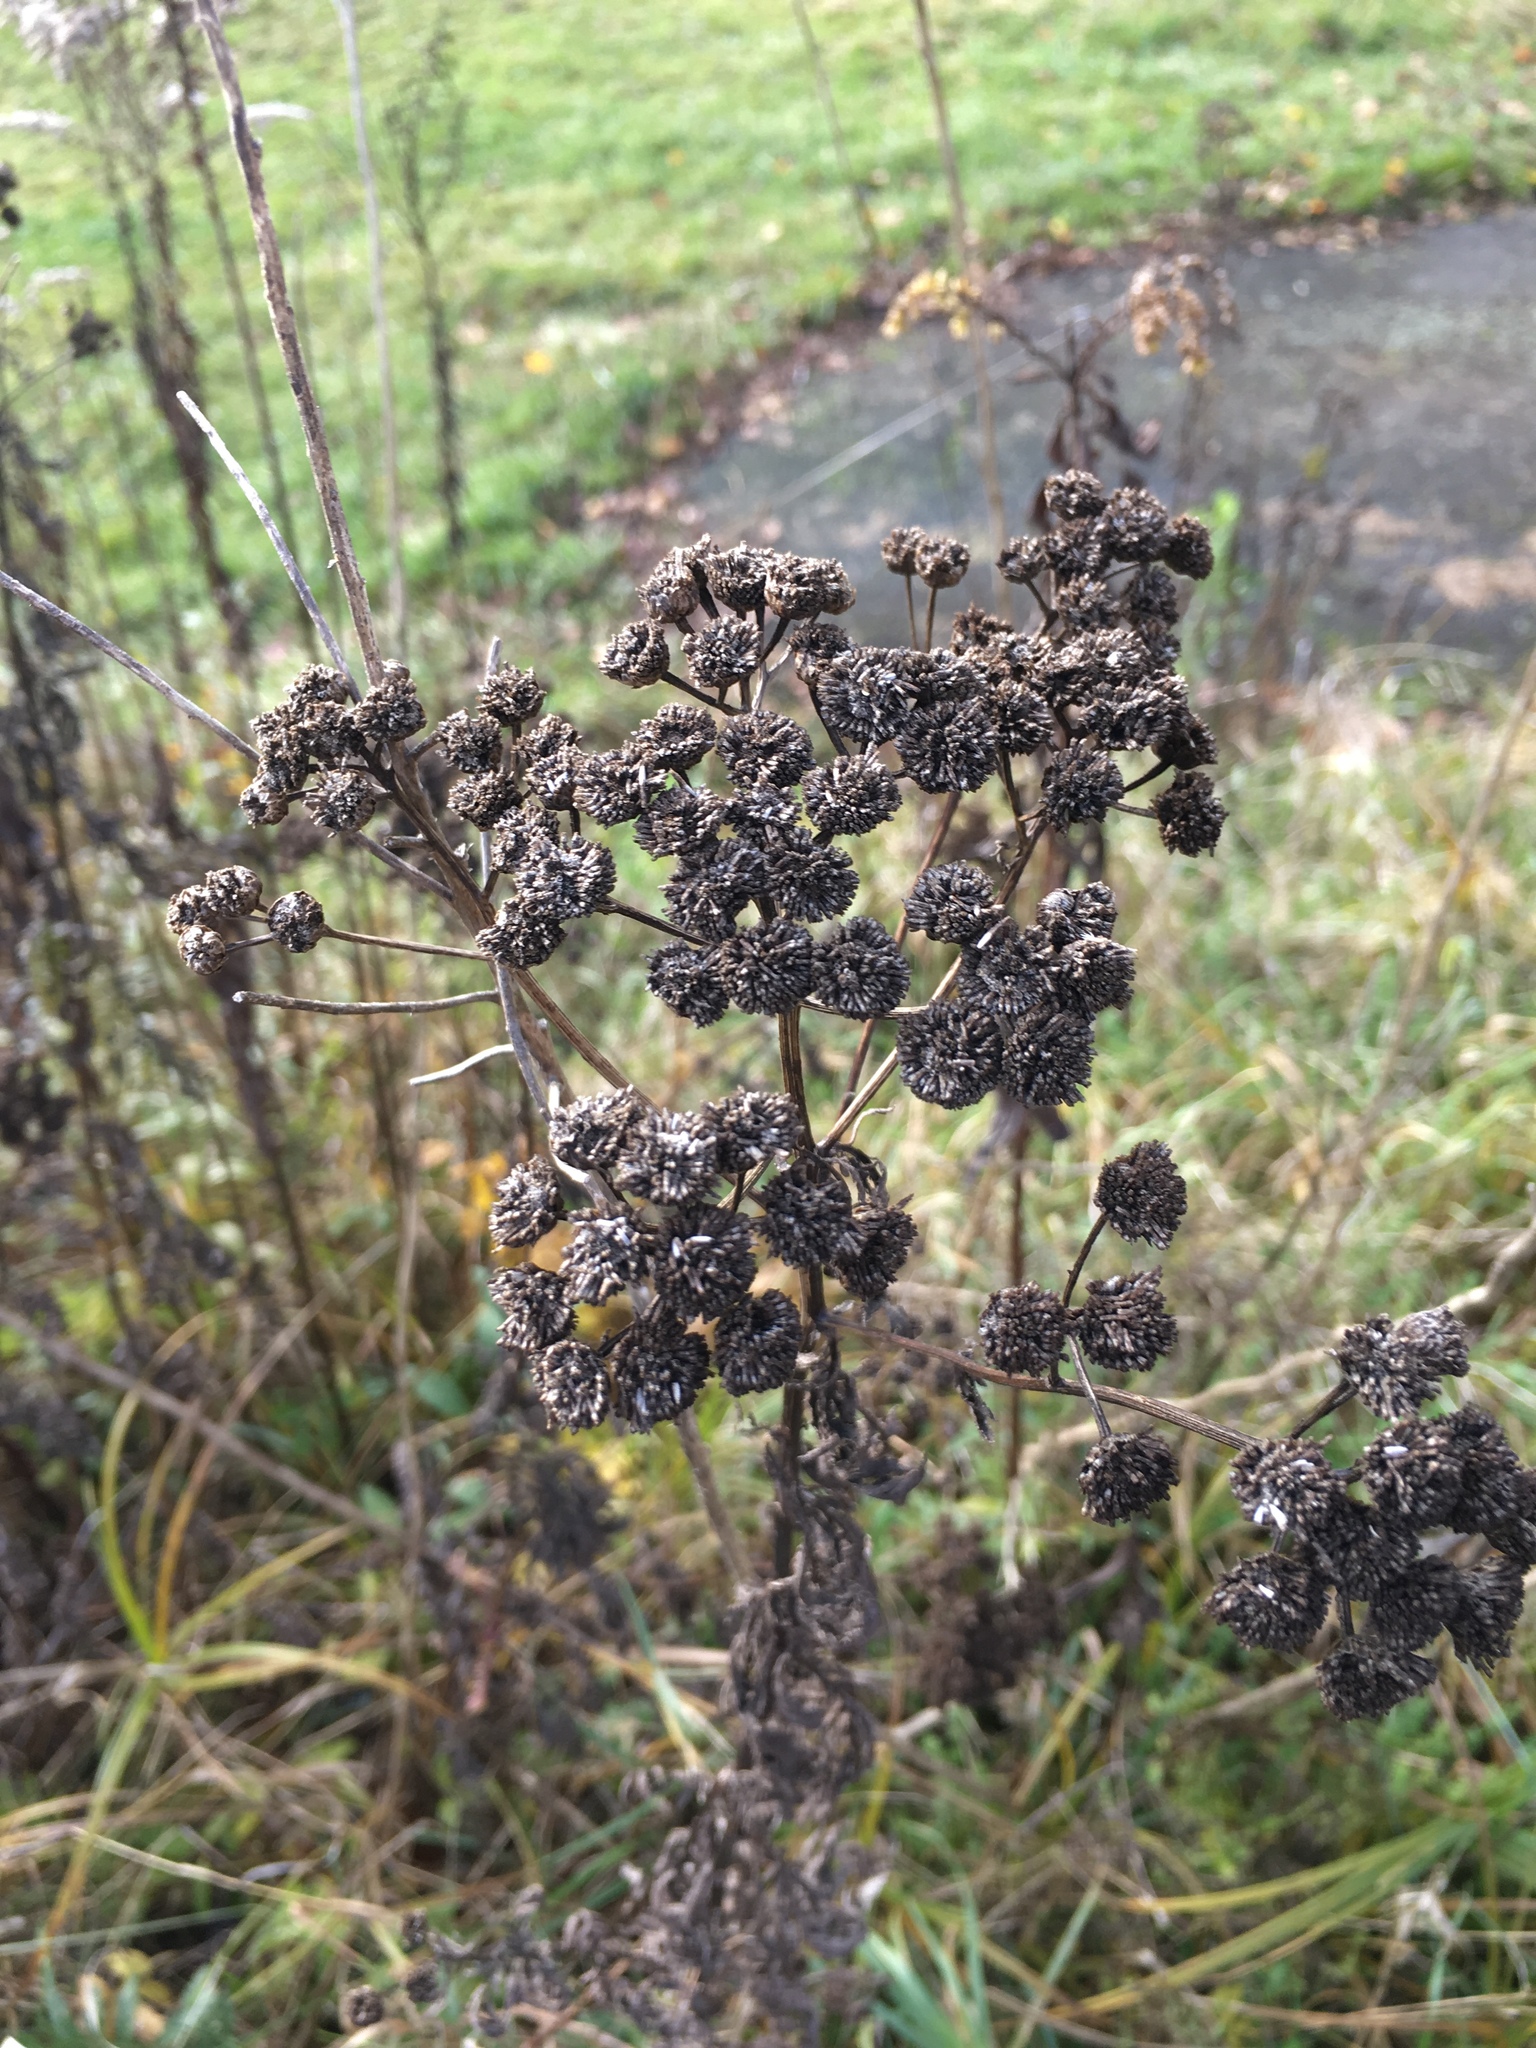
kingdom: Plantae
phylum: Tracheophyta
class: Magnoliopsida
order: Asterales
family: Asteraceae
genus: Tanacetum
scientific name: Tanacetum vulgare
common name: Common tansy
